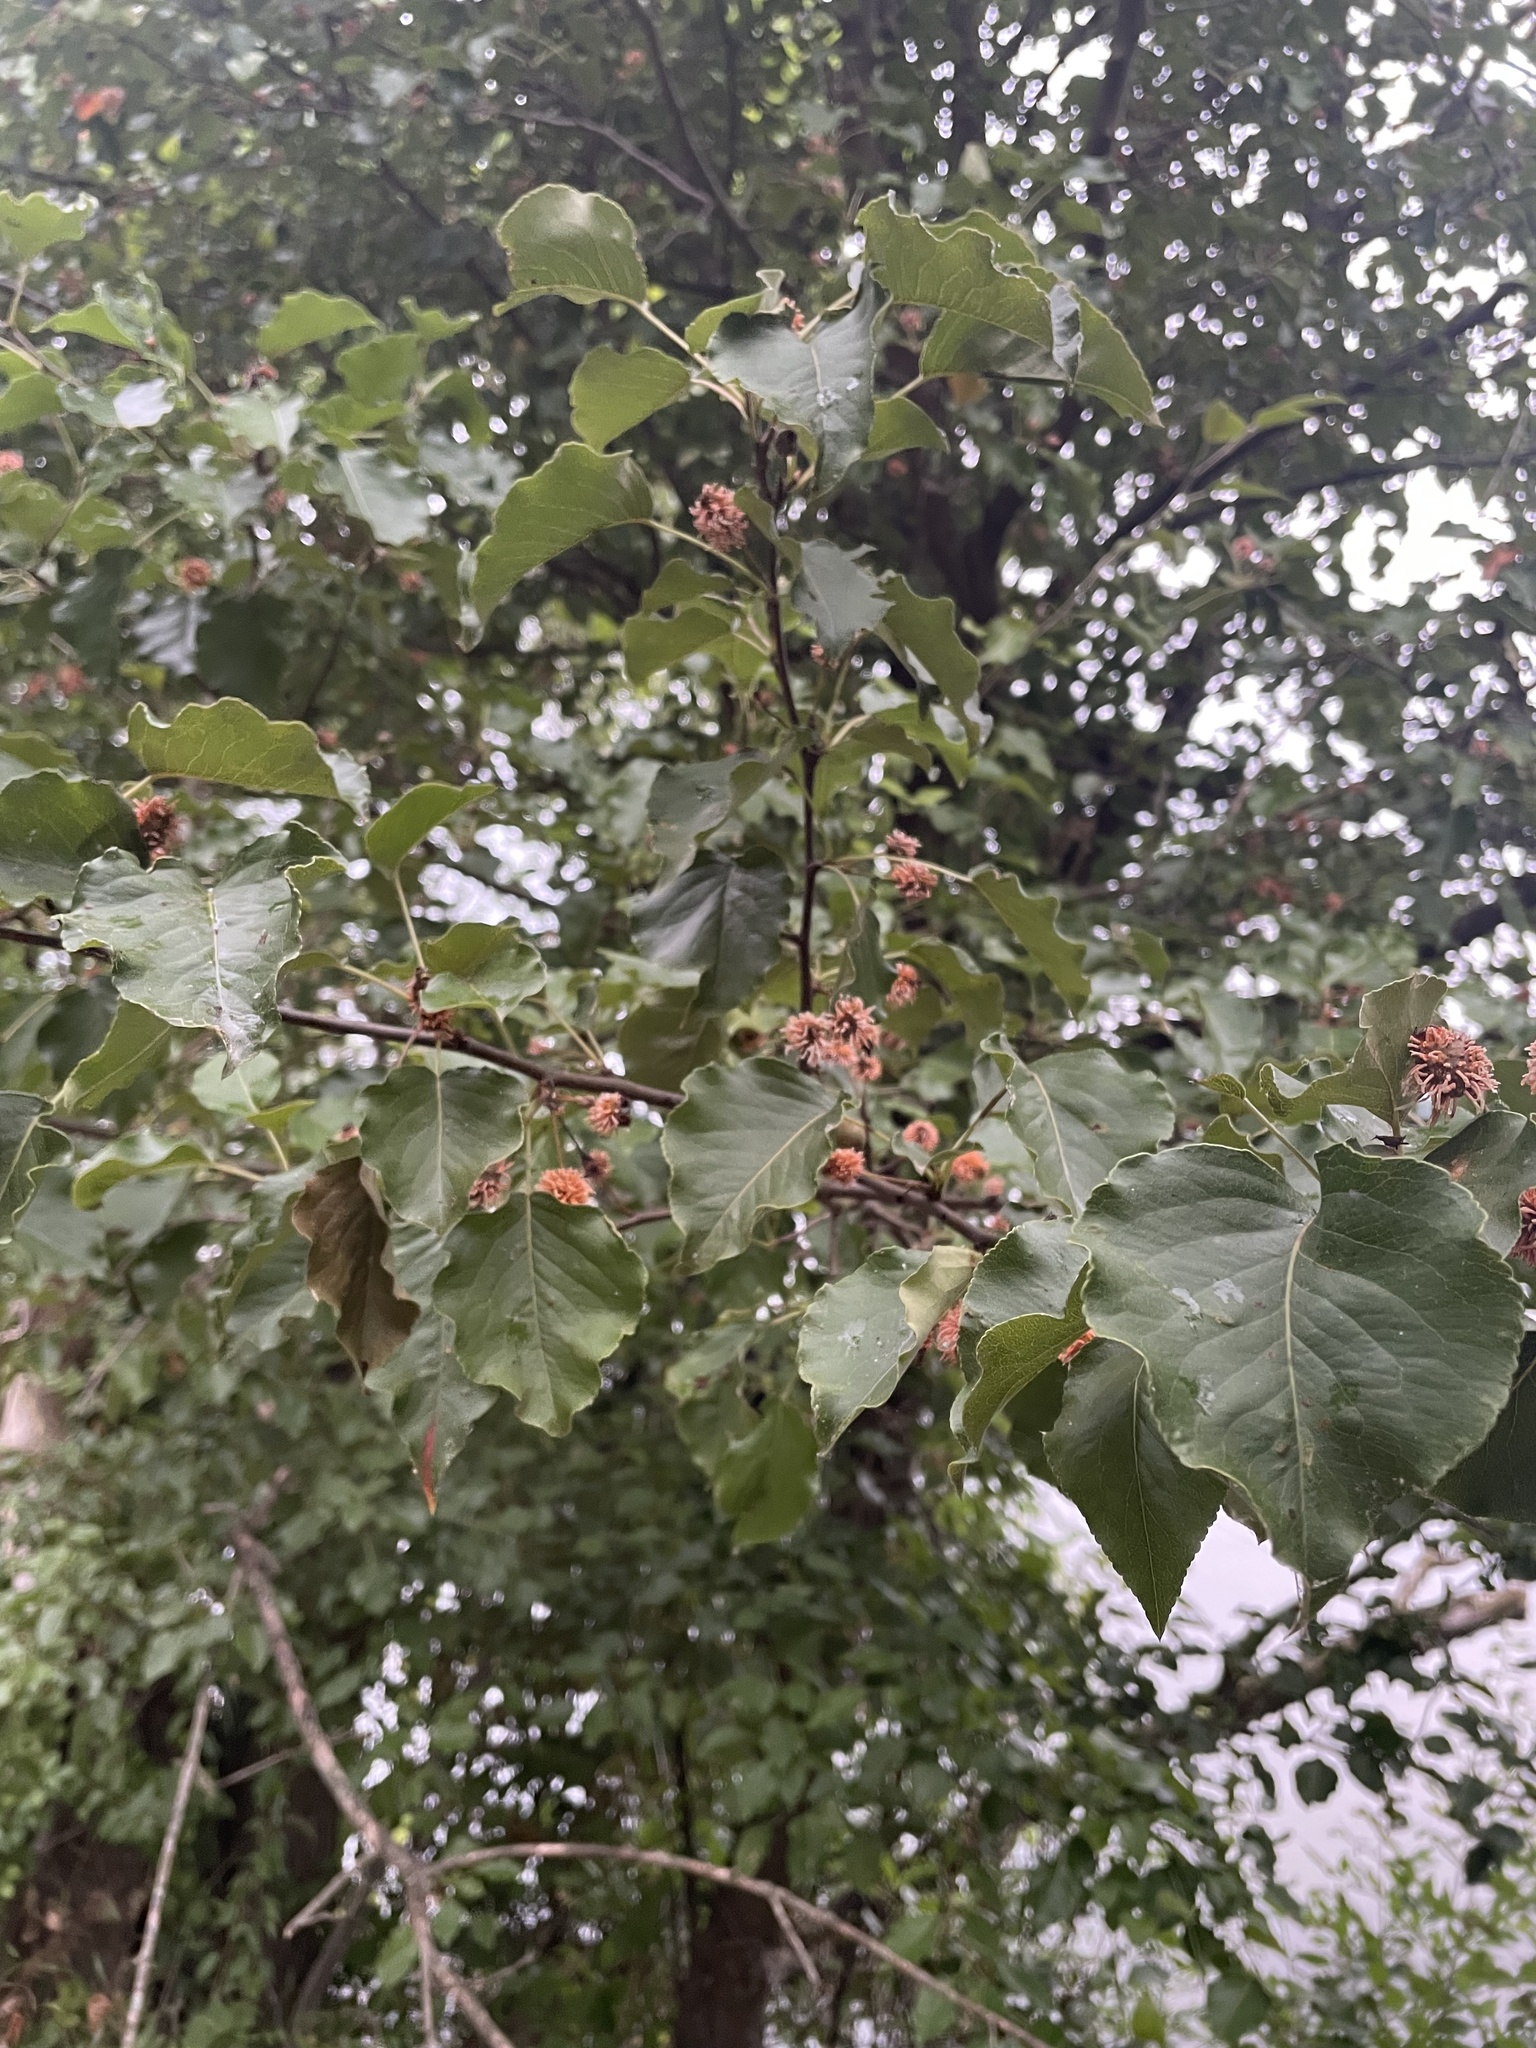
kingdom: Plantae
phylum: Tracheophyta
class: Magnoliopsida
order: Rosales
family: Rosaceae
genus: Pyrus
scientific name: Pyrus calleryana
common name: Callery pear
